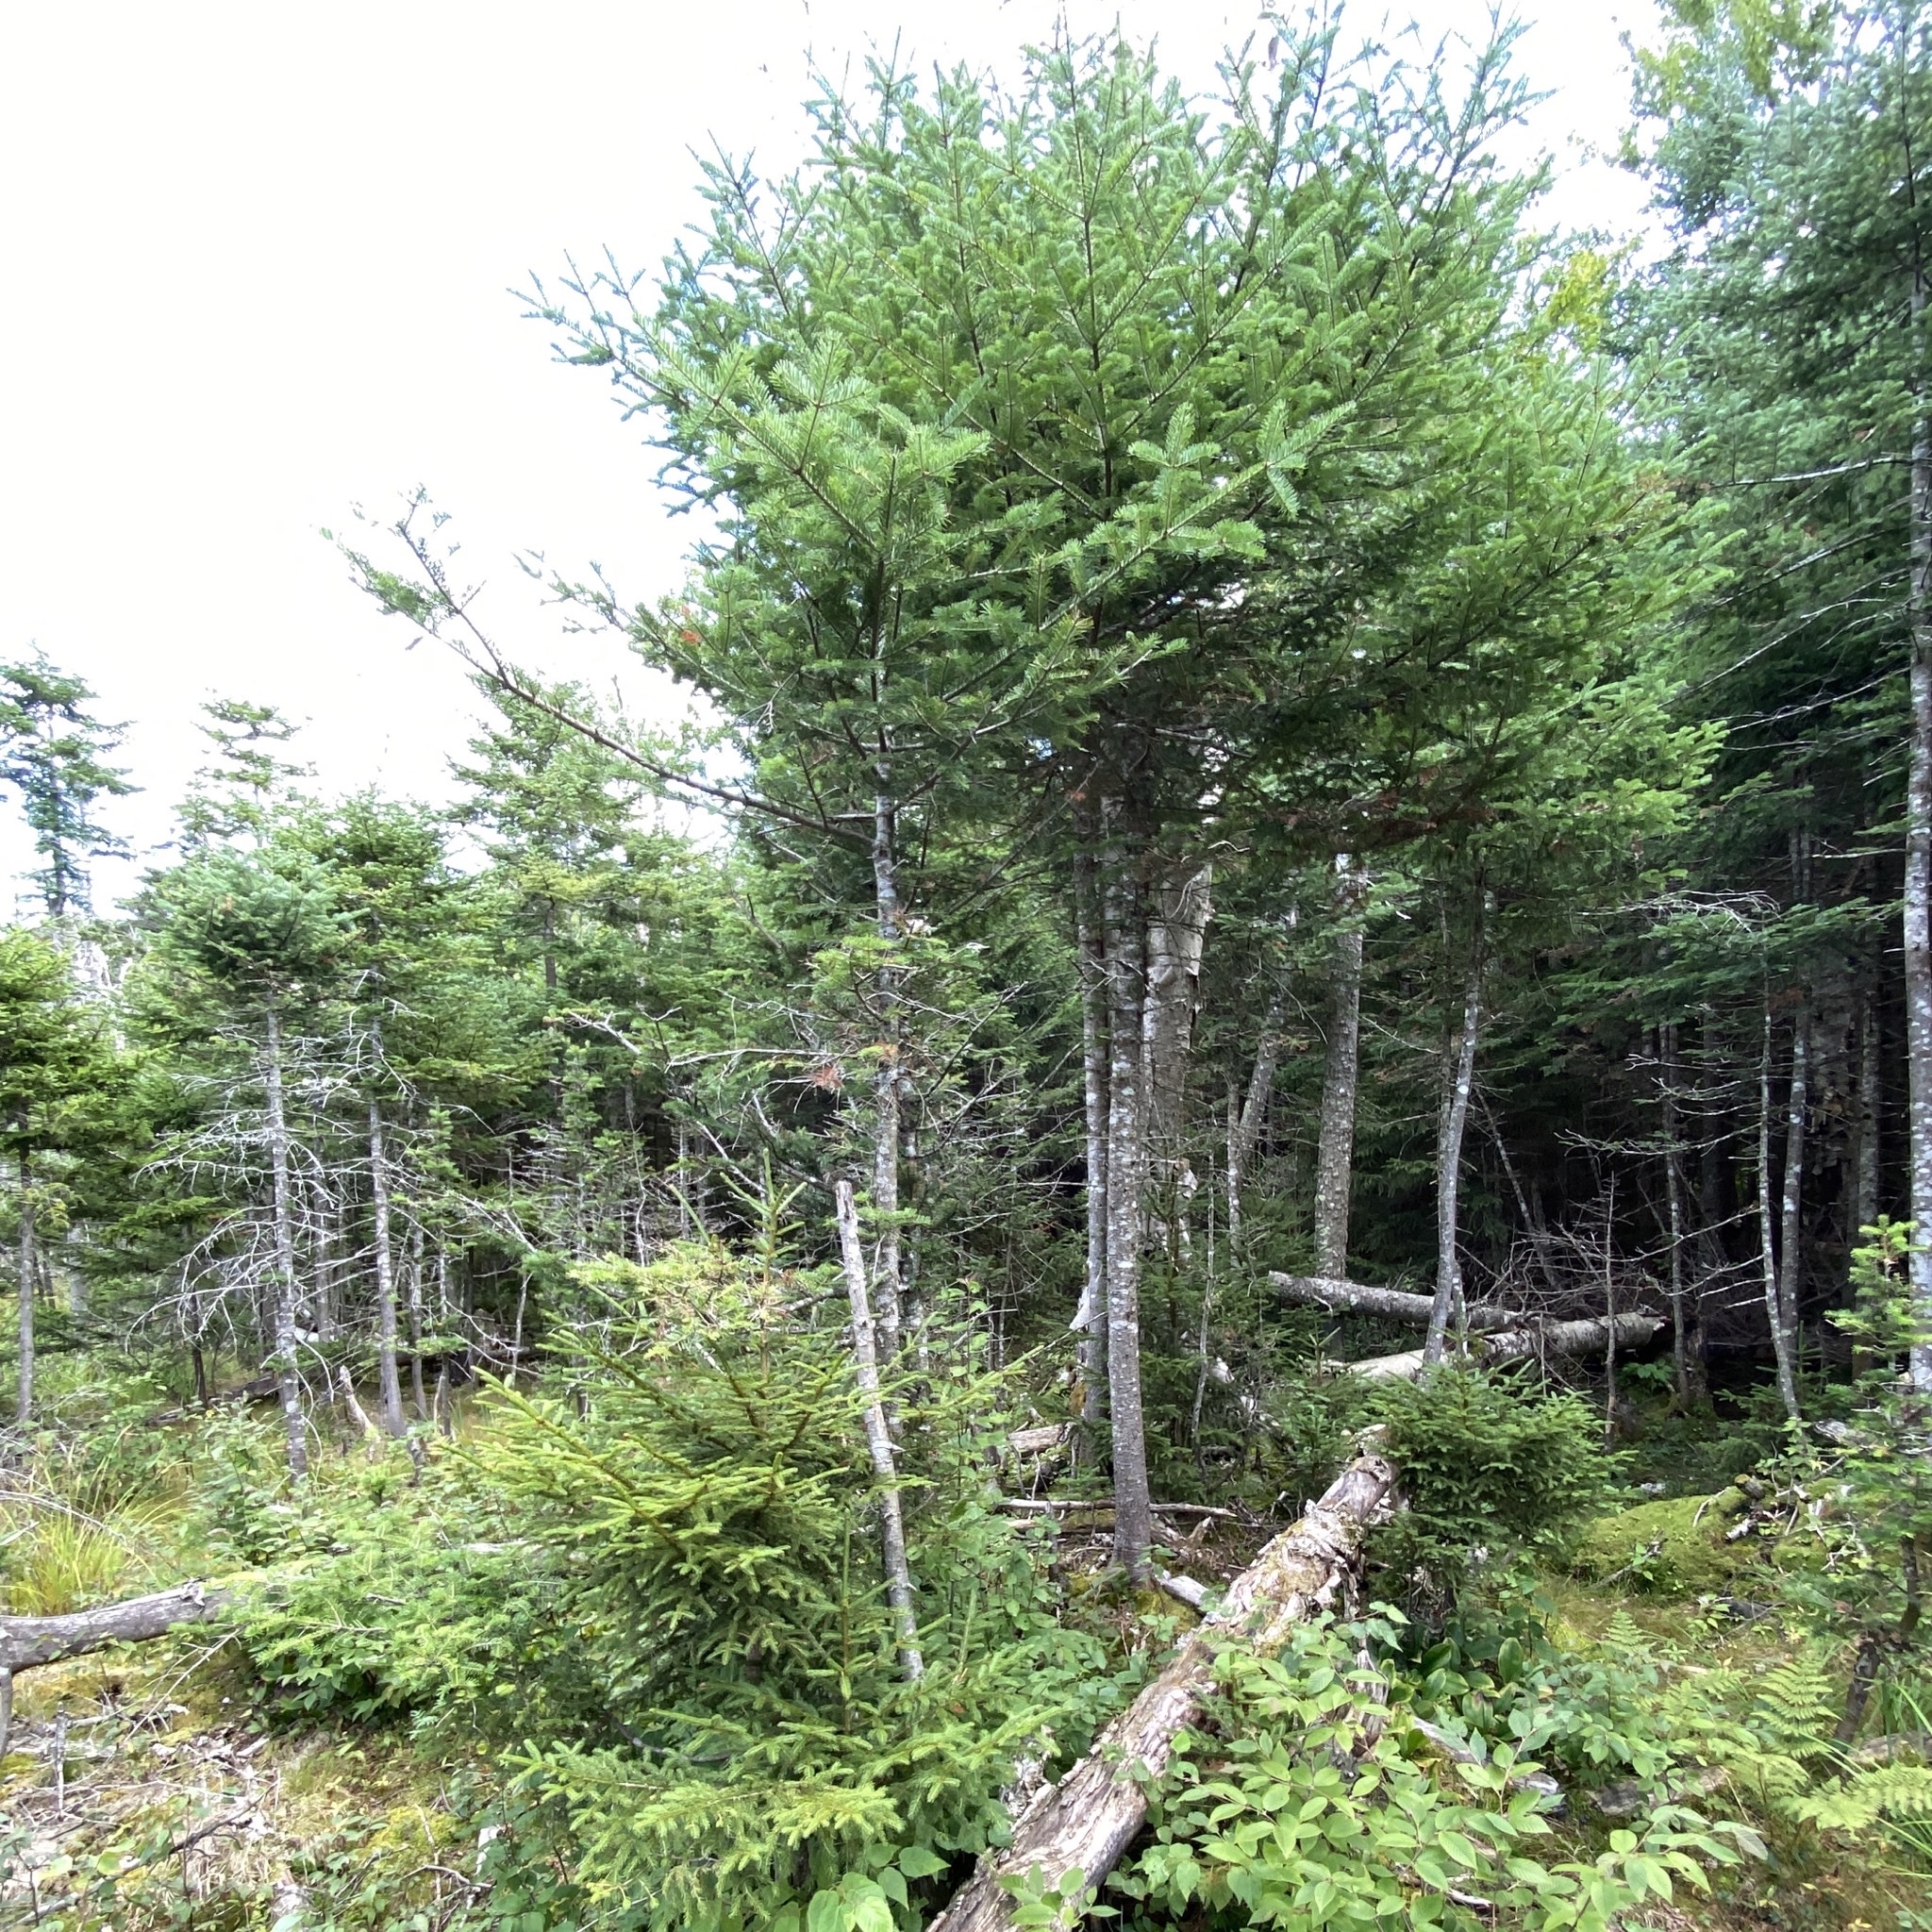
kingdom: Plantae
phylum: Tracheophyta
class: Pinopsida
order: Pinales
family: Pinaceae
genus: Abies
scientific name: Abies balsamea
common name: Balsam fir
